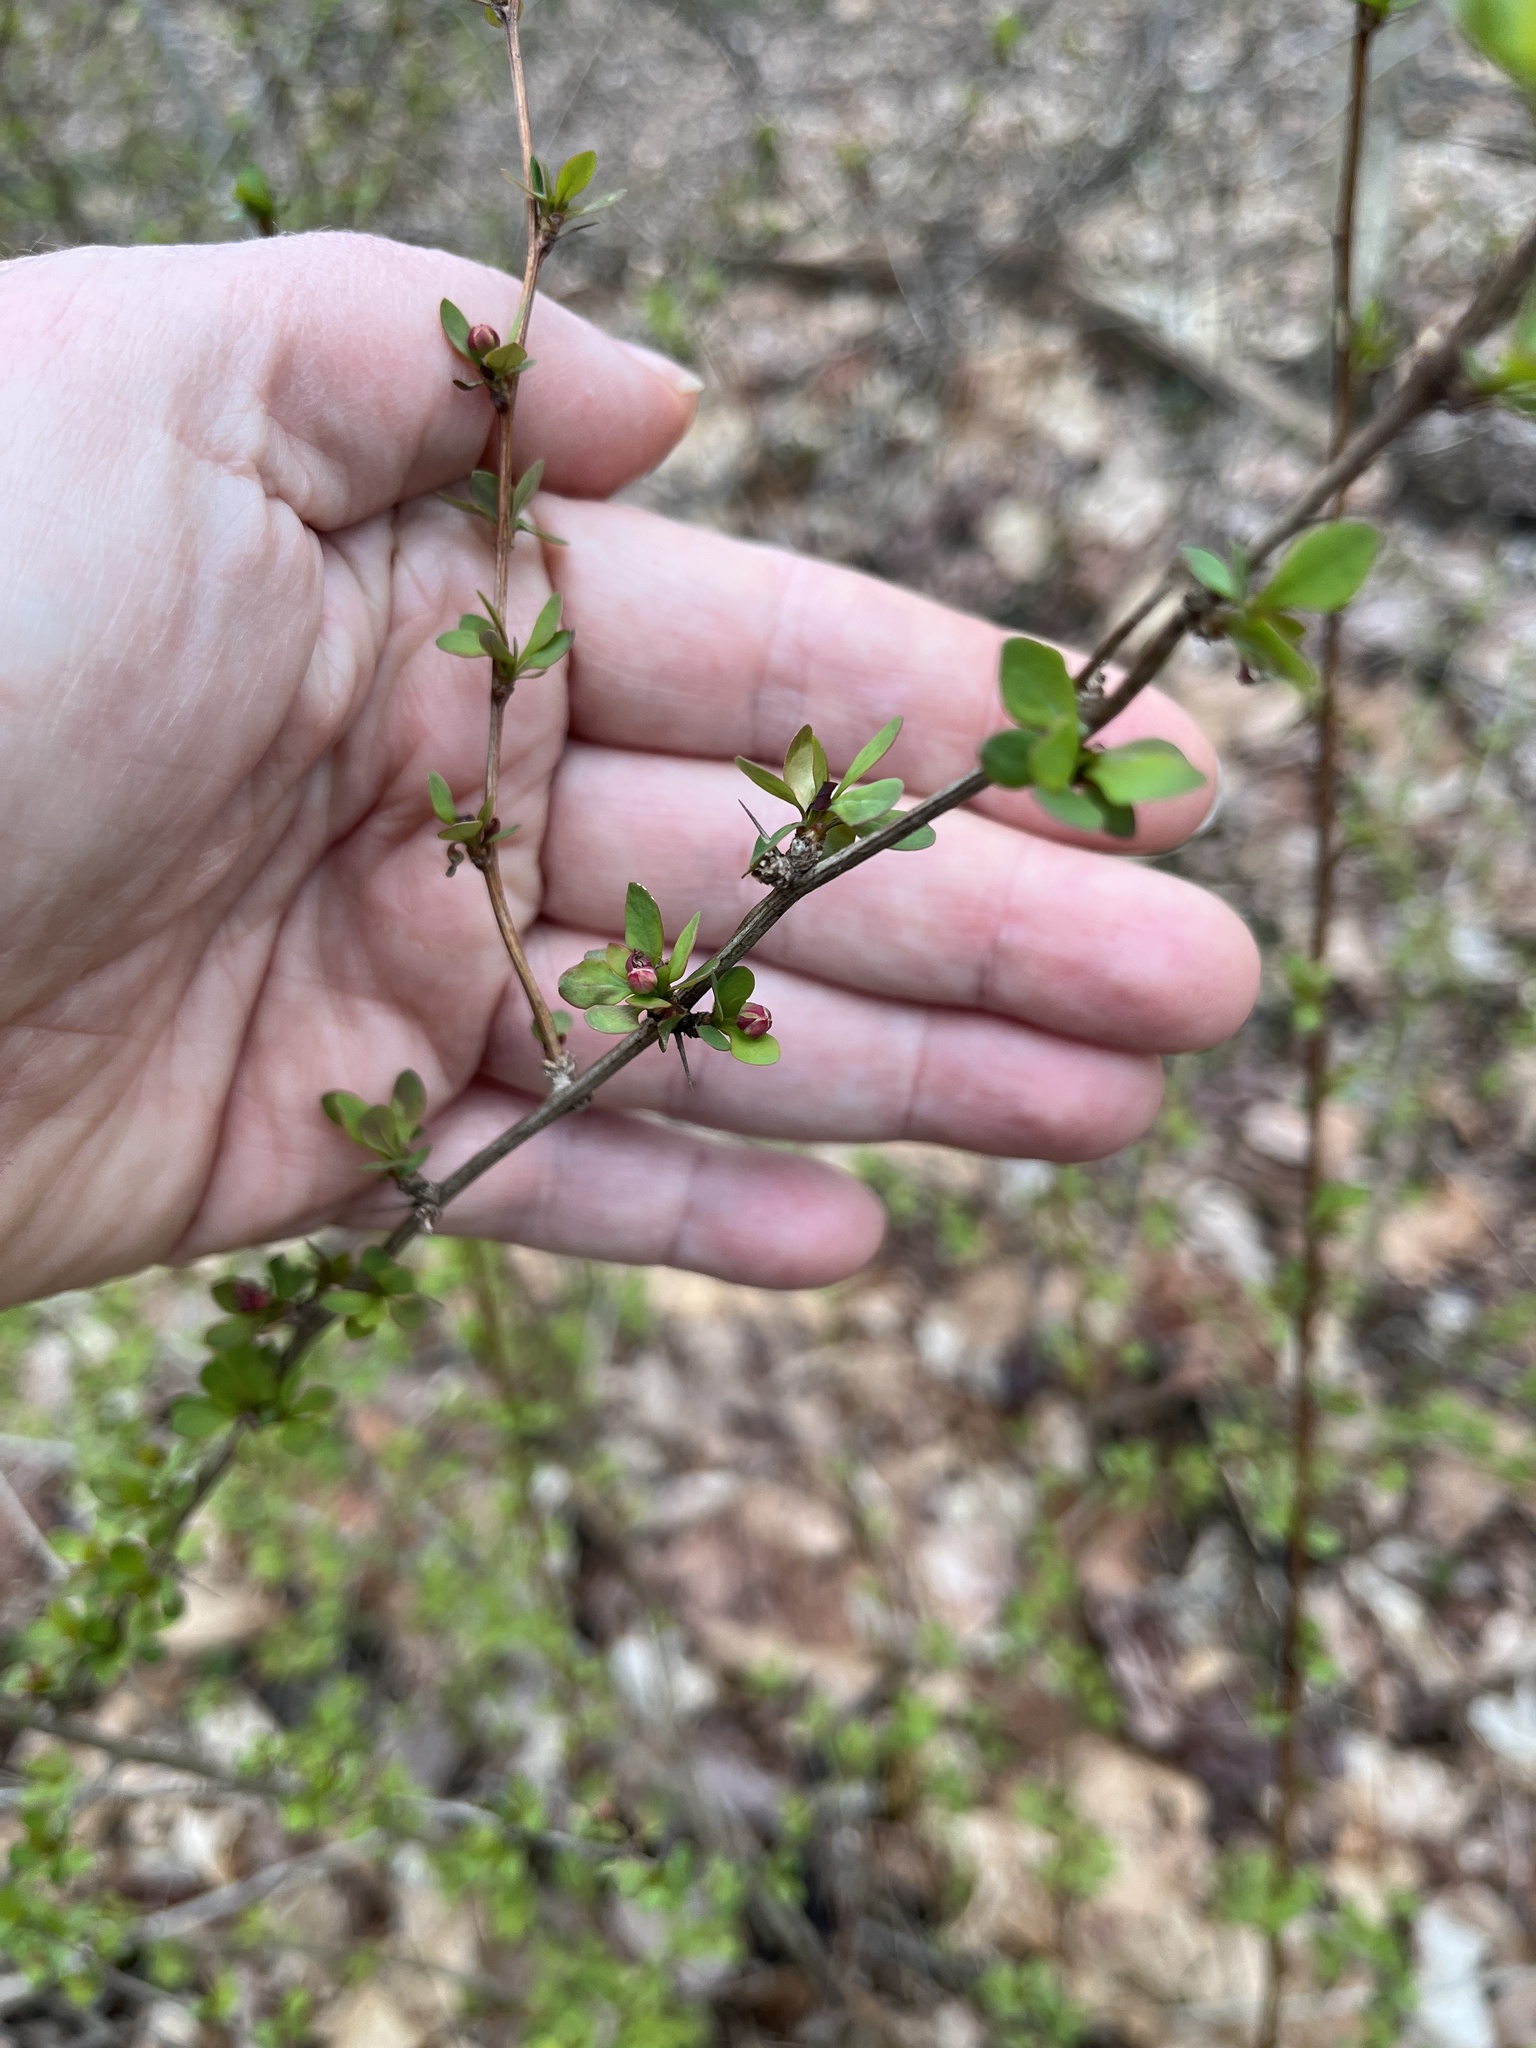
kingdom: Plantae
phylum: Tracheophyta
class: Magnoliopsida
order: Ranunculales
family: Berberidaceae
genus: Berberis
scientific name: Berberis thunbergii
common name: Japanese barberry
